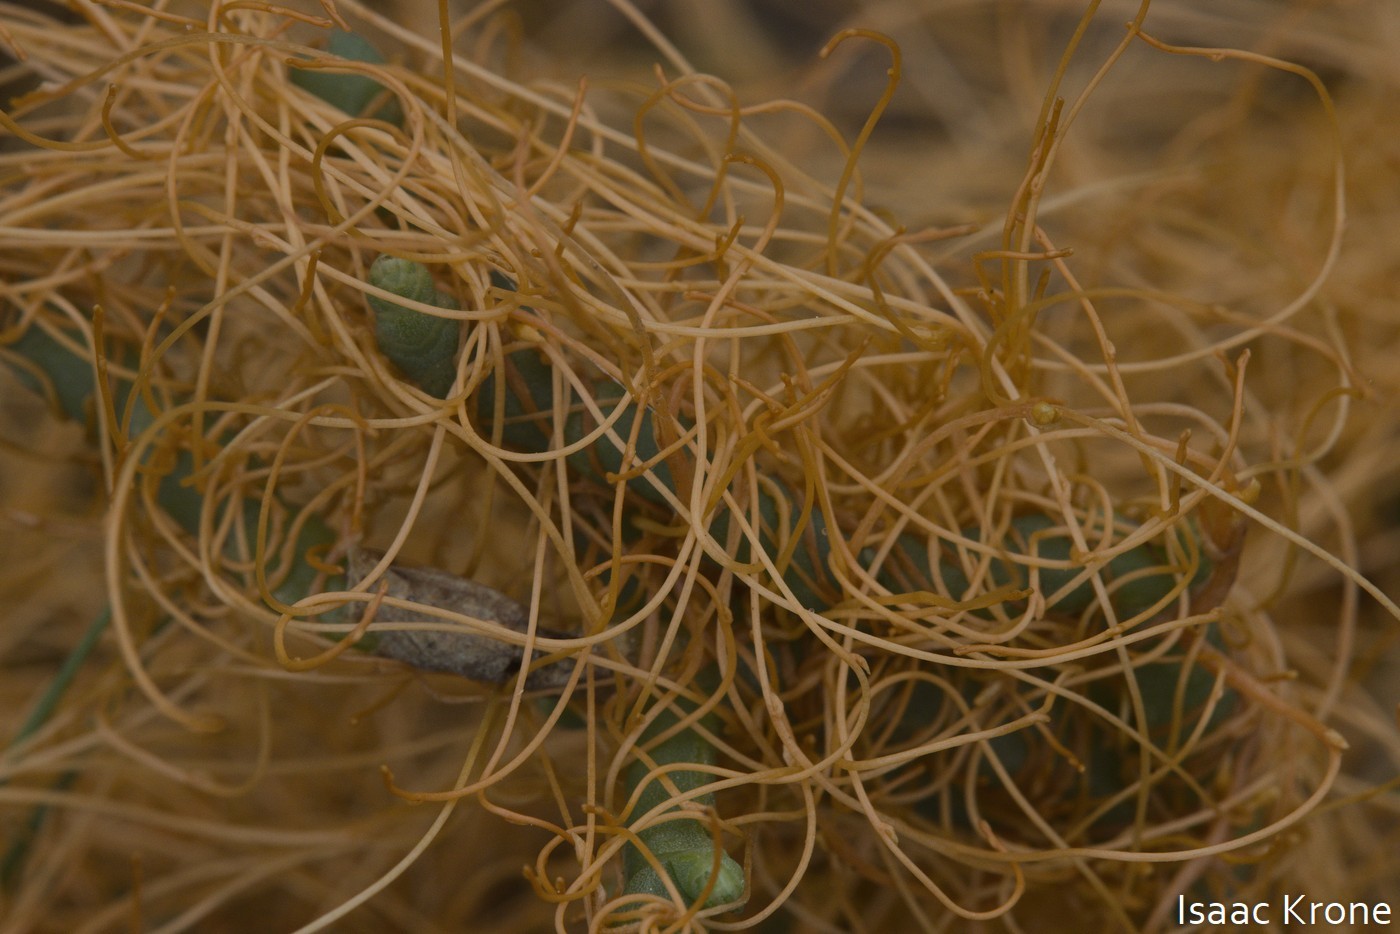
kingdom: Plantae
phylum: Tracheophyta
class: Magnoliopsida
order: Solanales
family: Convolvulaceae
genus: Cuscuta
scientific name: Cuscuta pacifica
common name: Large saltmarsh dodder
